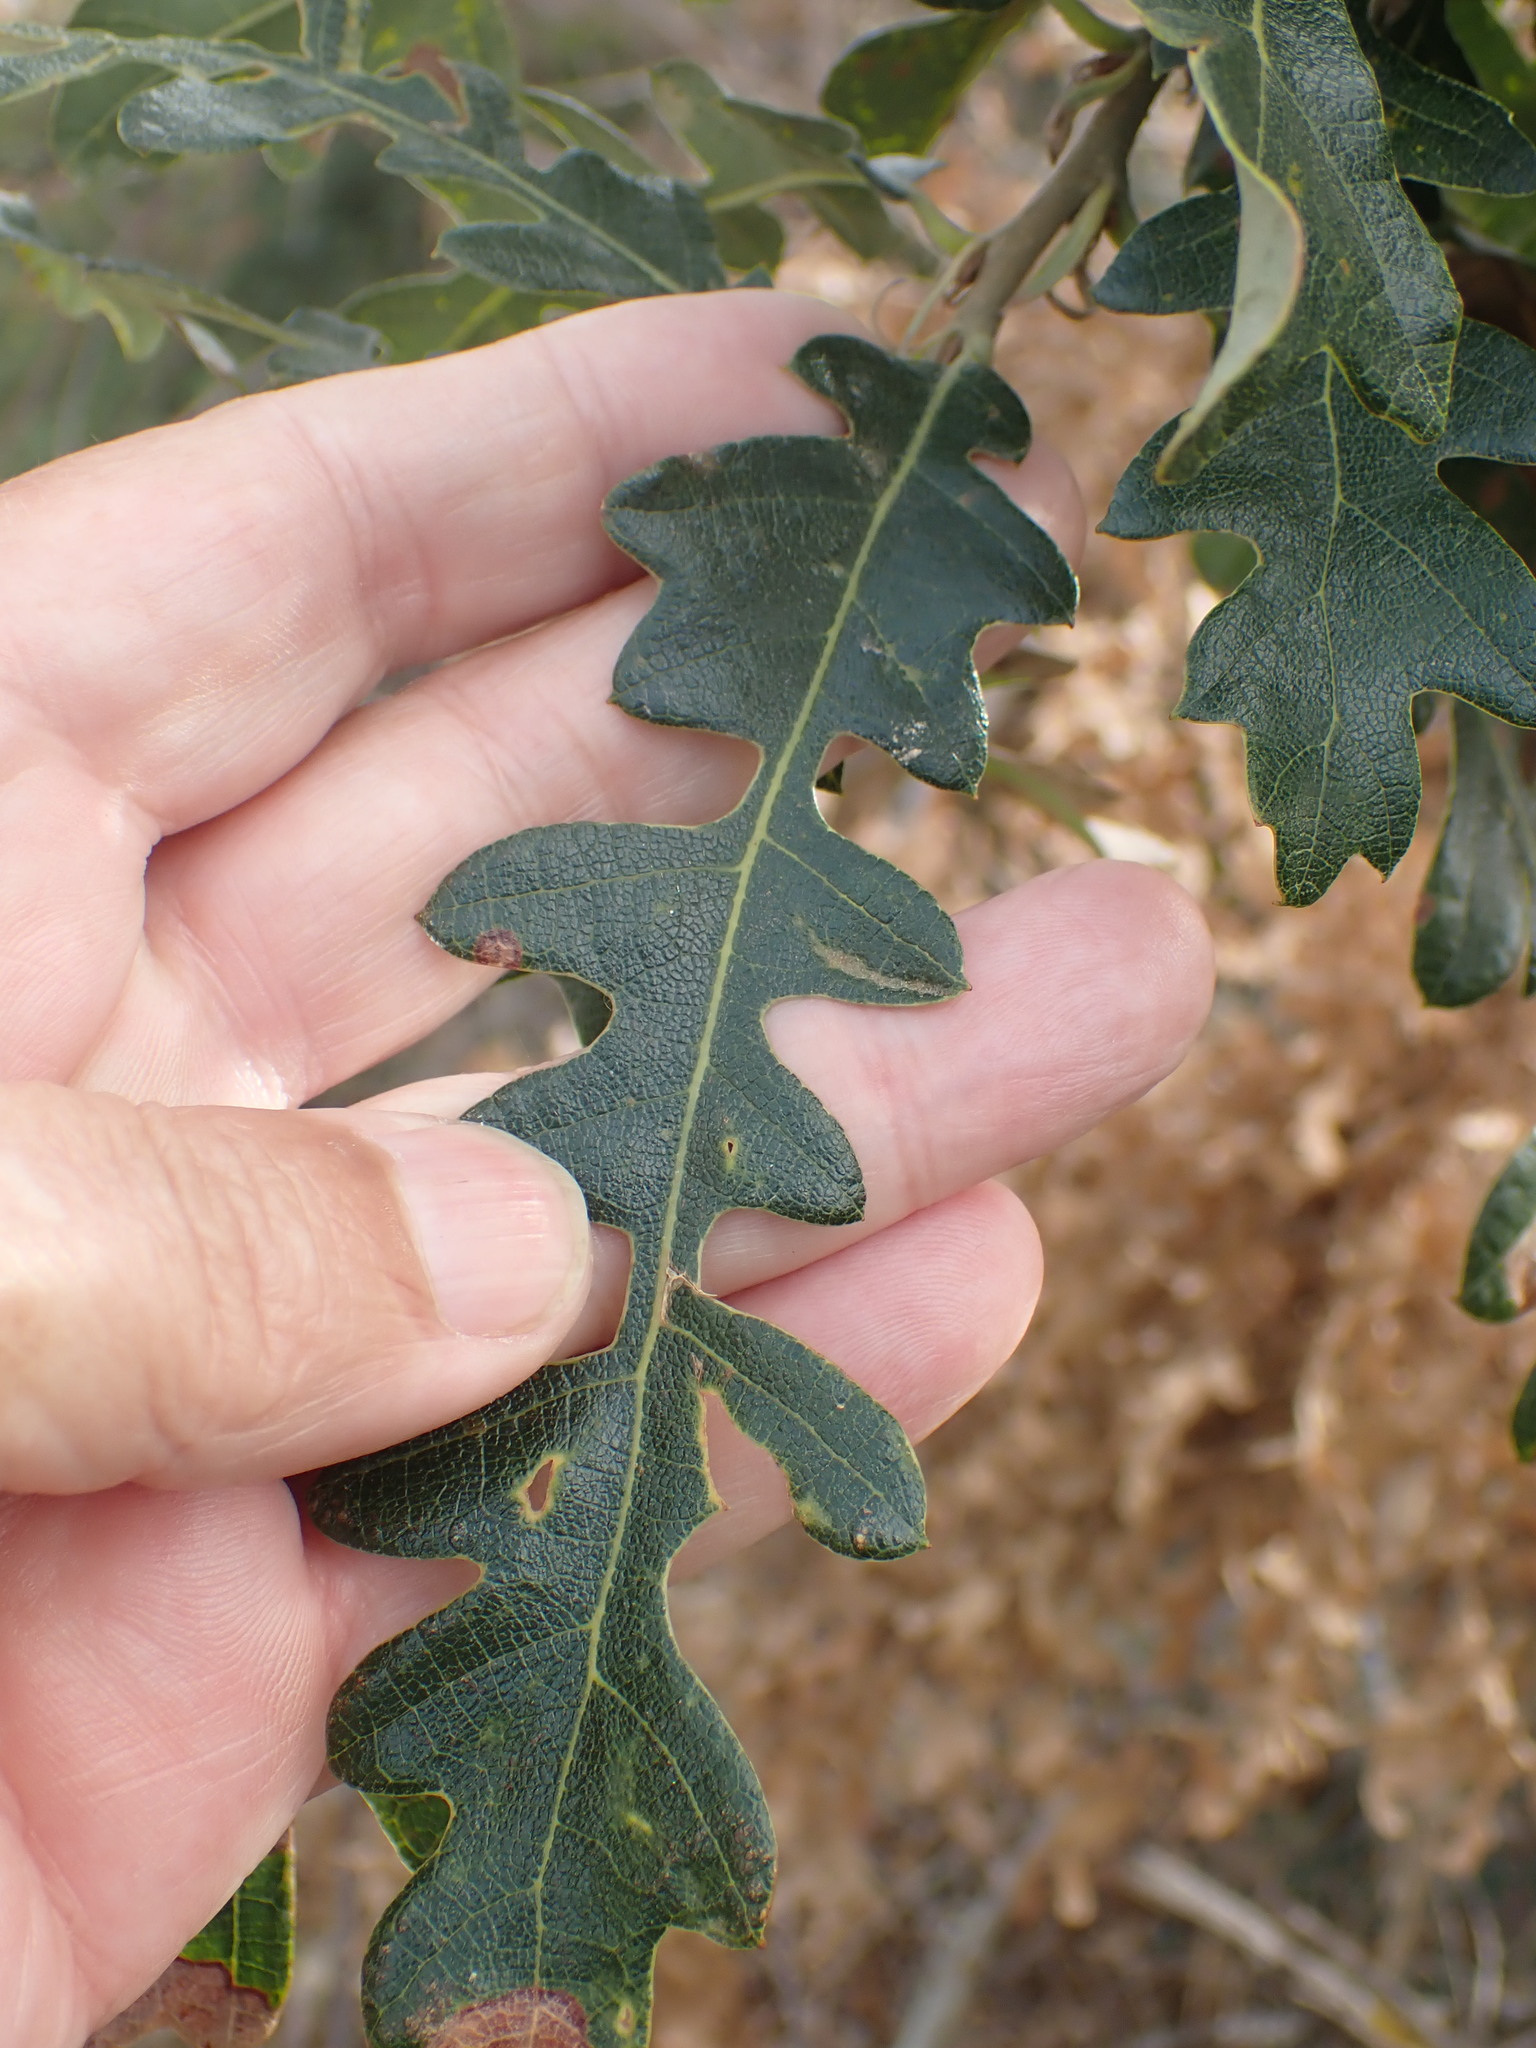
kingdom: Plantae
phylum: Tracheophyta
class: Magnoliopsida
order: Fagales
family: Fagaceae
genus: Quercus
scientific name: Quercus cerris
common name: Turkey oak
